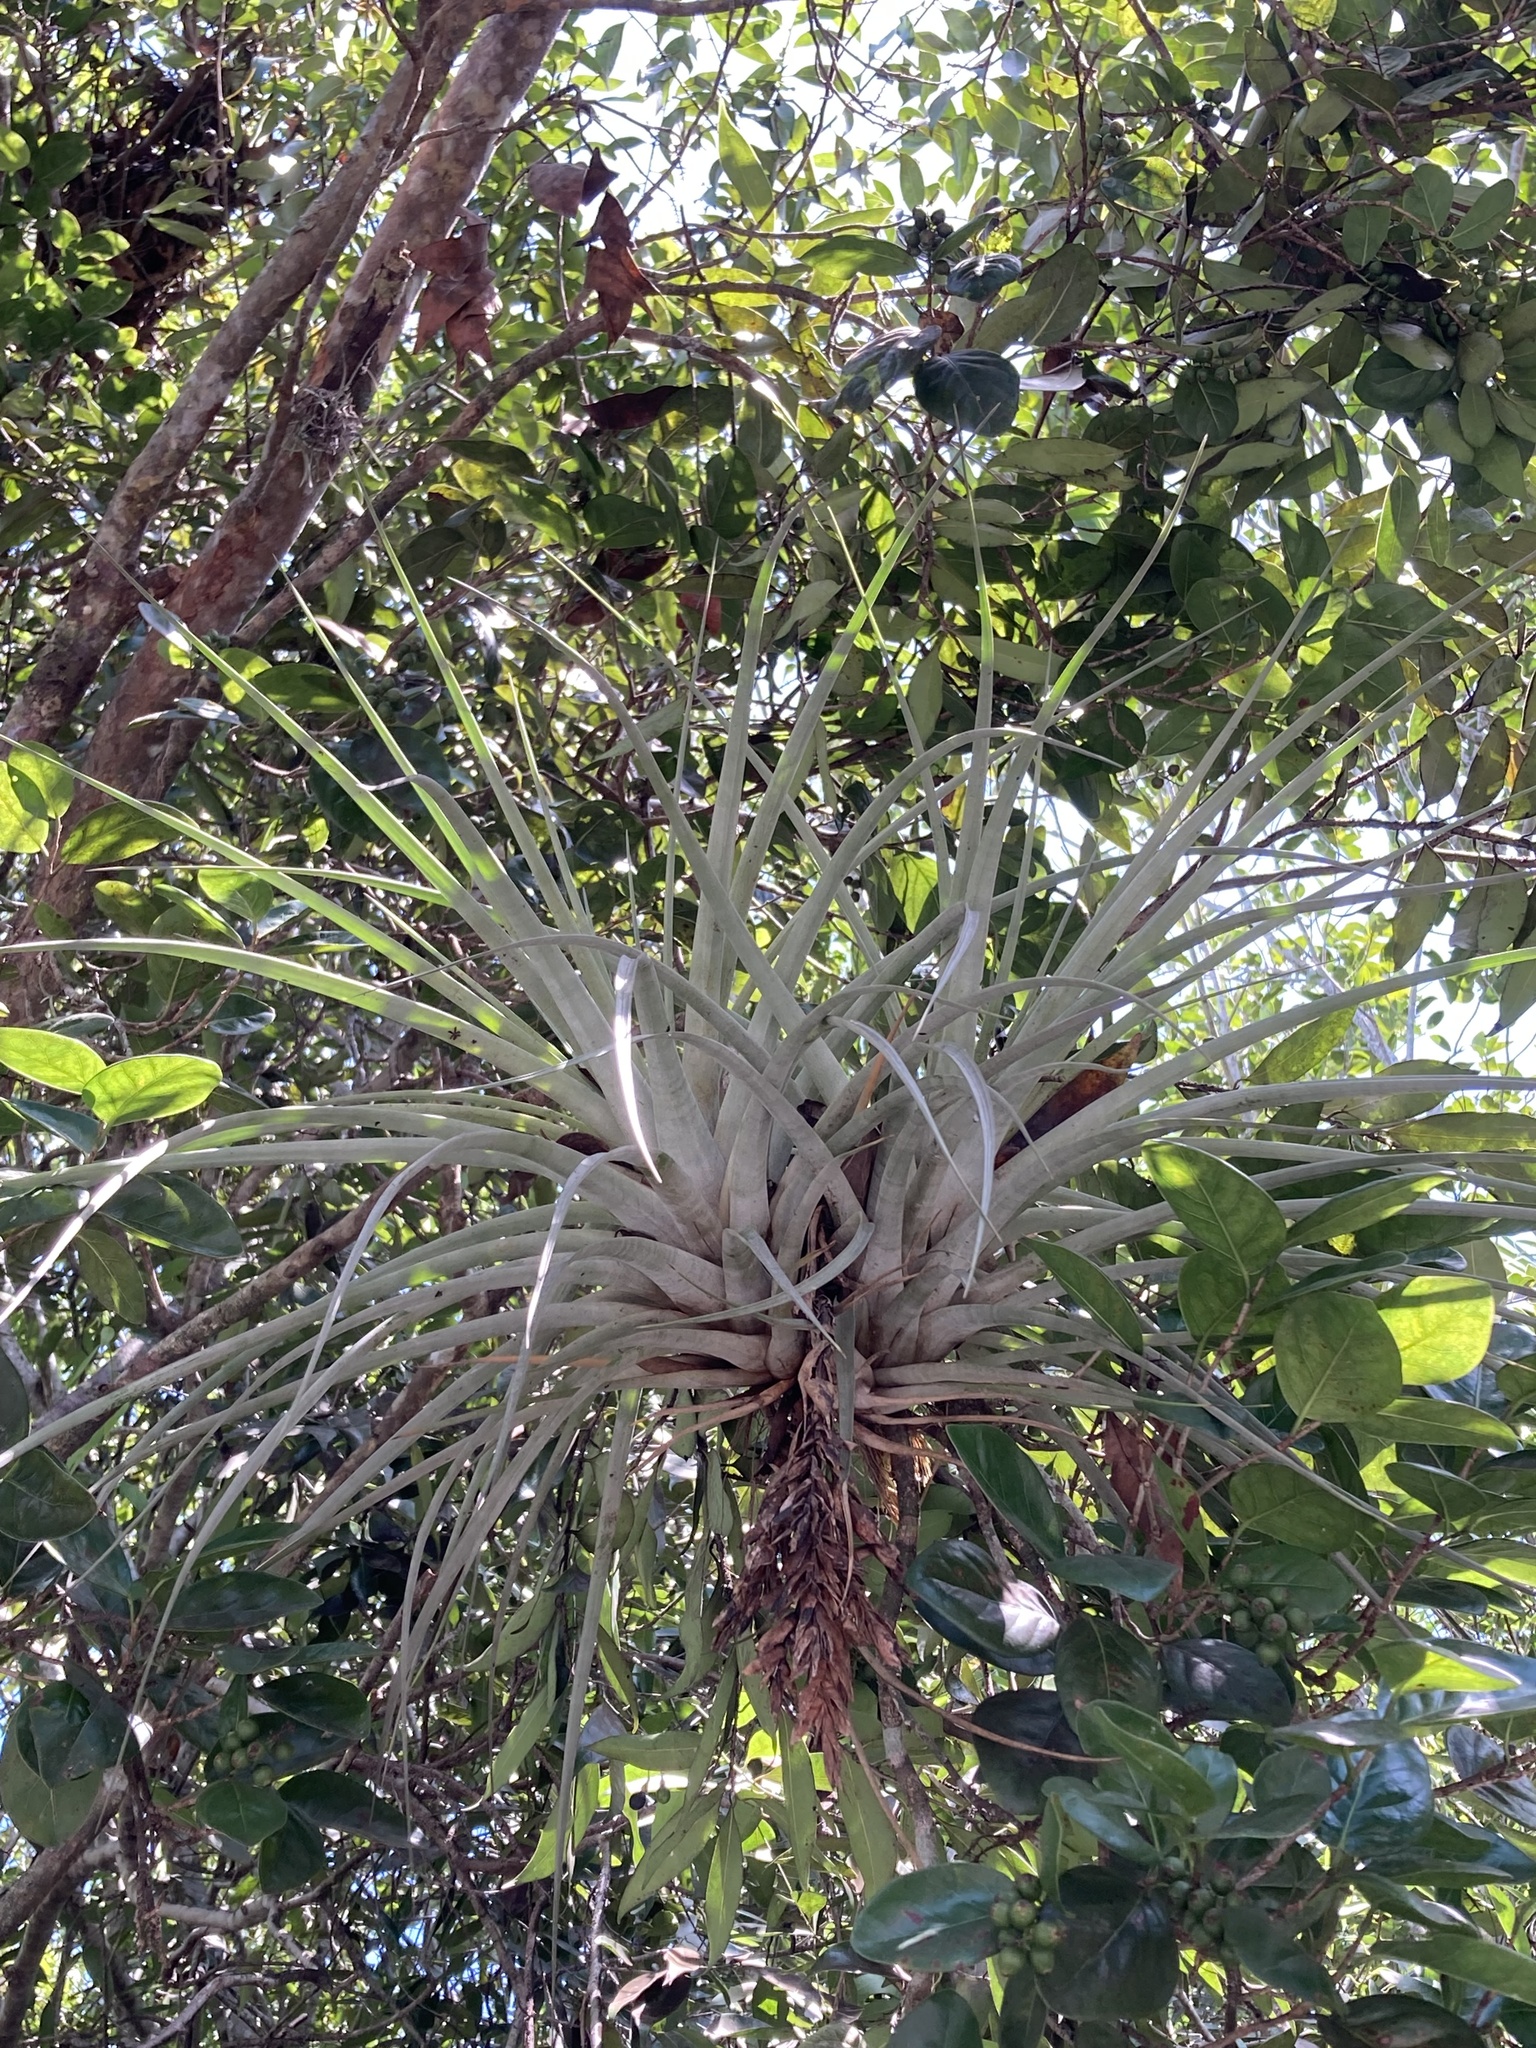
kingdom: Plantae
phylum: Tracheophyta
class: Liliopsida
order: Poales
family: Bromeliaceae
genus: Tillandsia
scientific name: Tillandsia fasciculata
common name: Giant airplant
